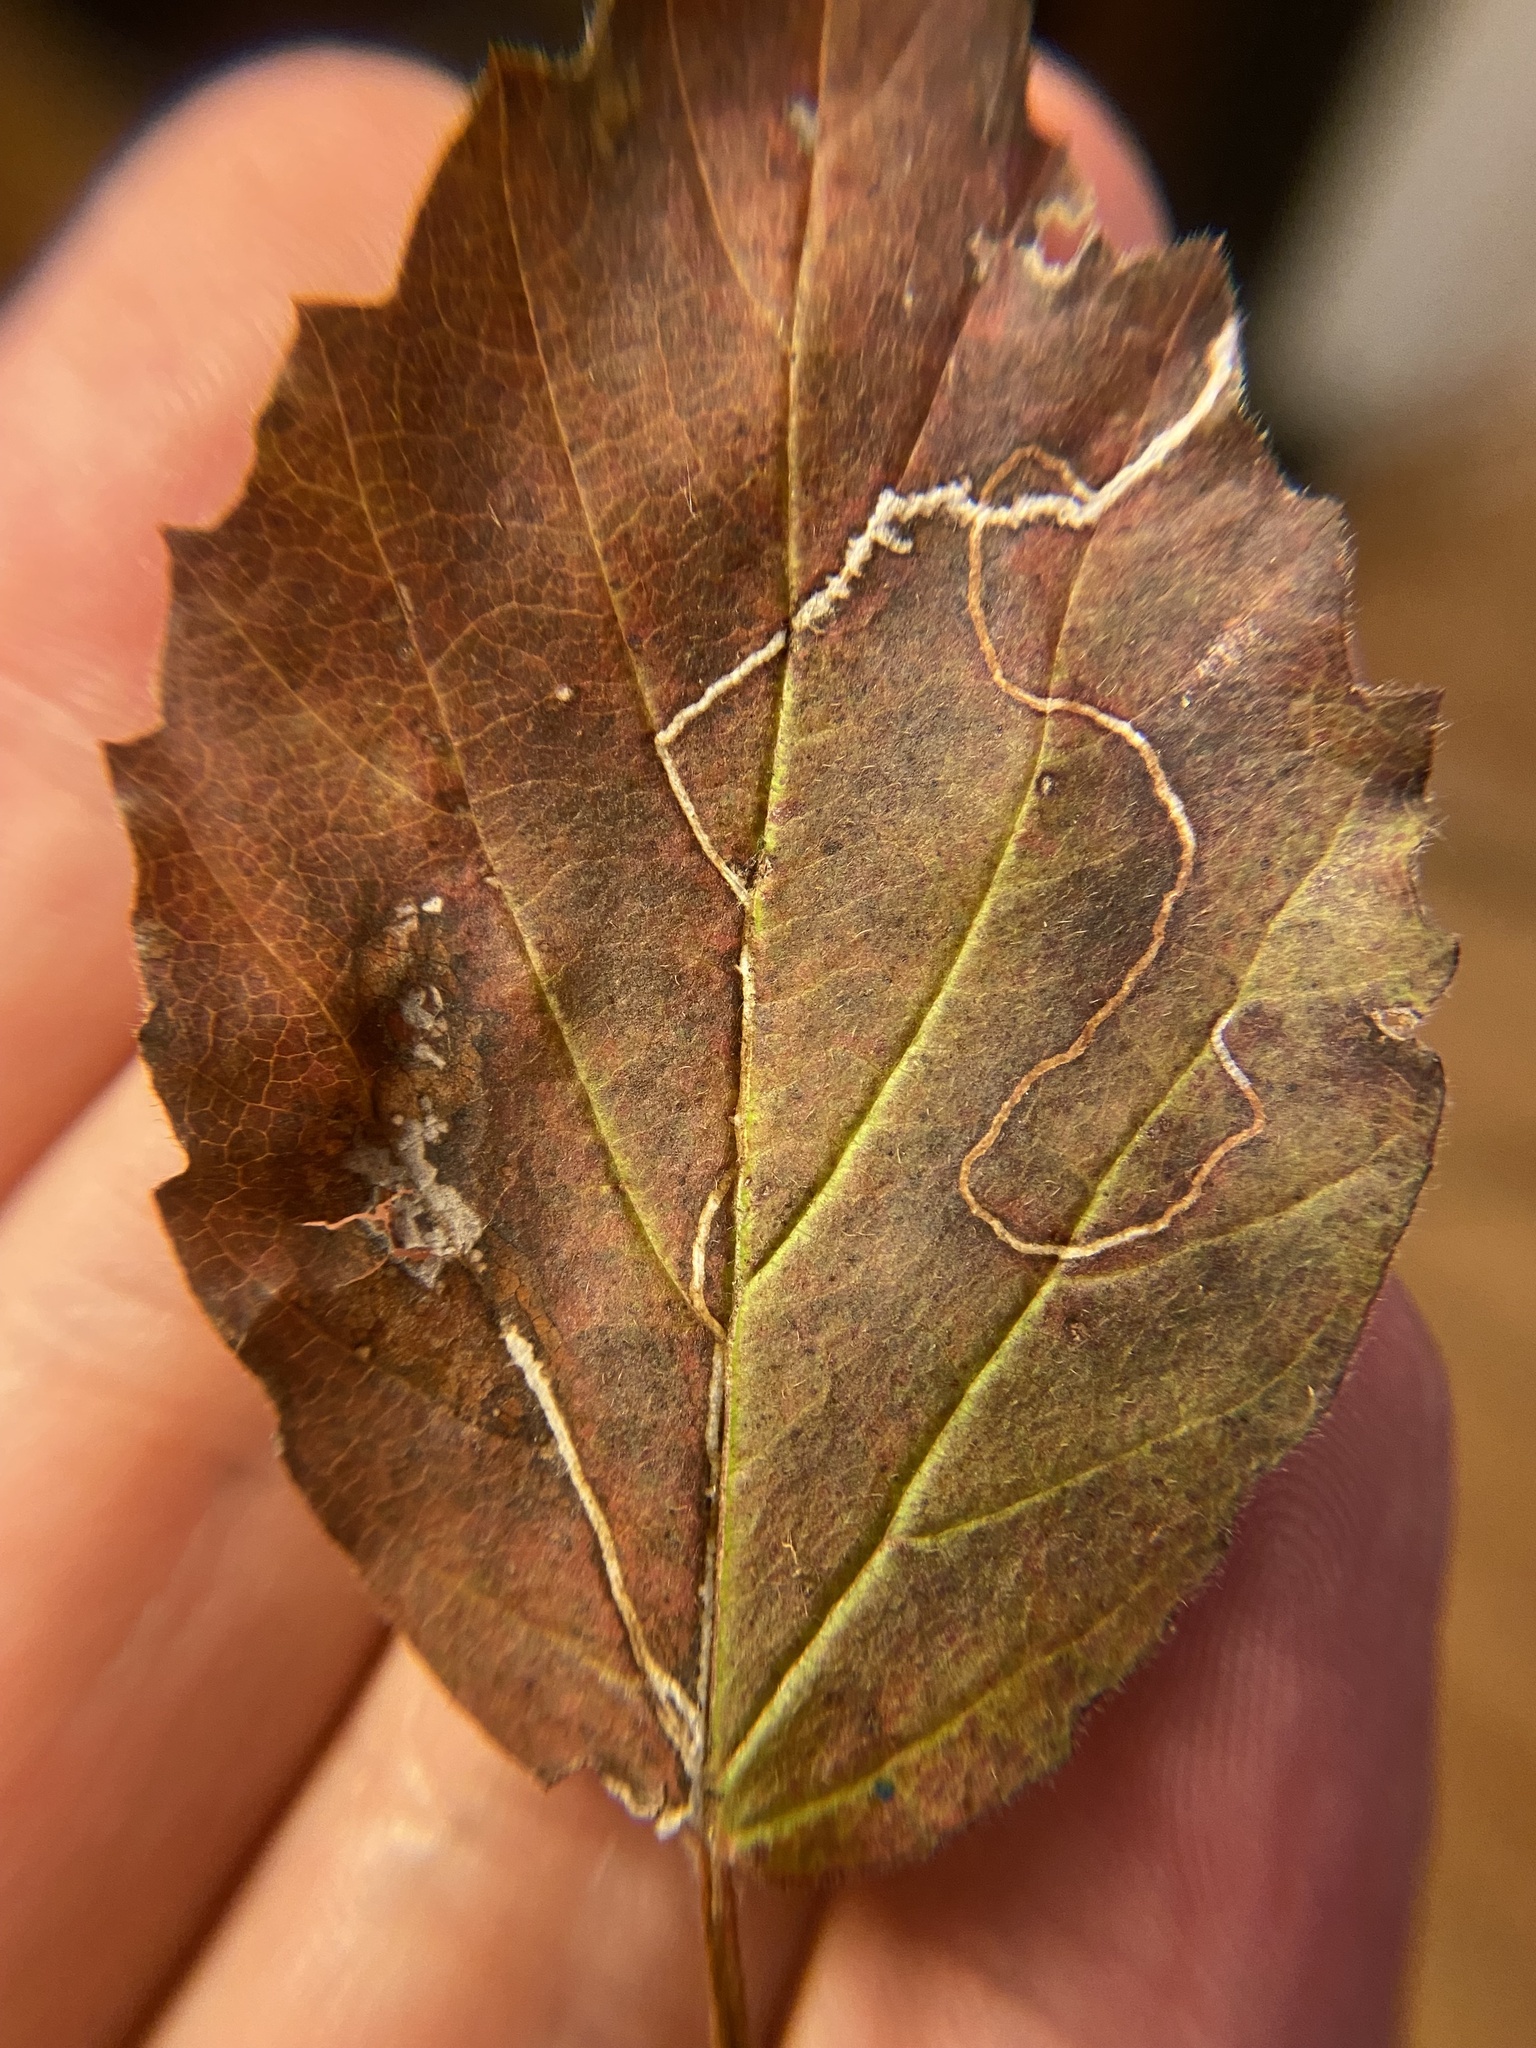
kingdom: Animalia
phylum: Arthropoda
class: Insecta
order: Lepidoptera
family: Gracillariidae
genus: Marmara
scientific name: Marmara viburnella
